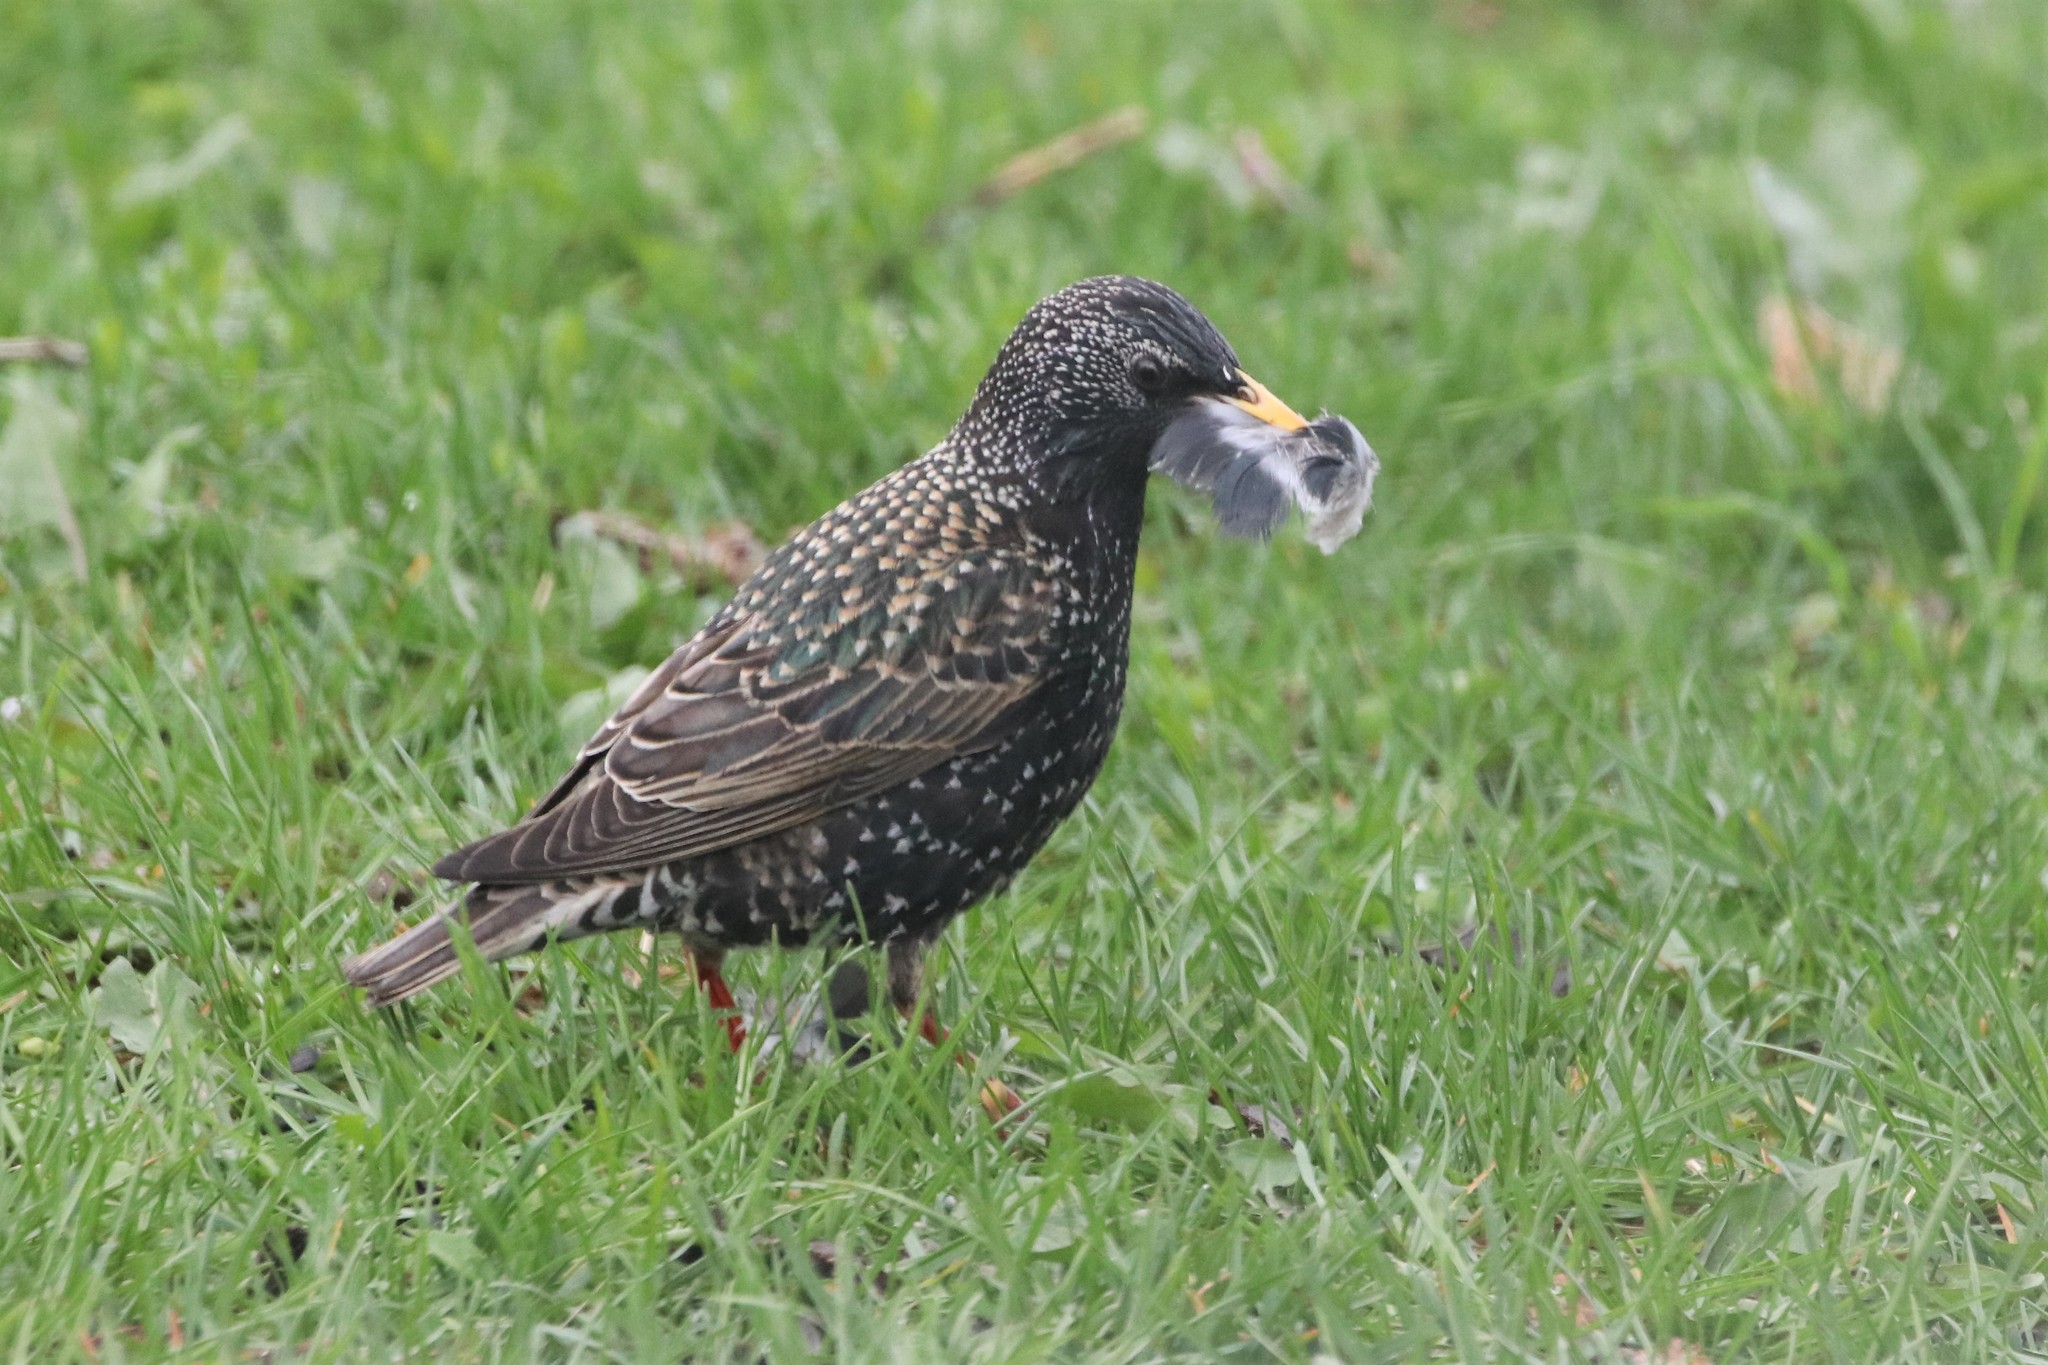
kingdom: Animalia
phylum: Chordata
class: Aves
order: Passeriformes
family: Sturnidae
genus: Sturnus
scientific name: Sturnus vulgaris
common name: Common starling
